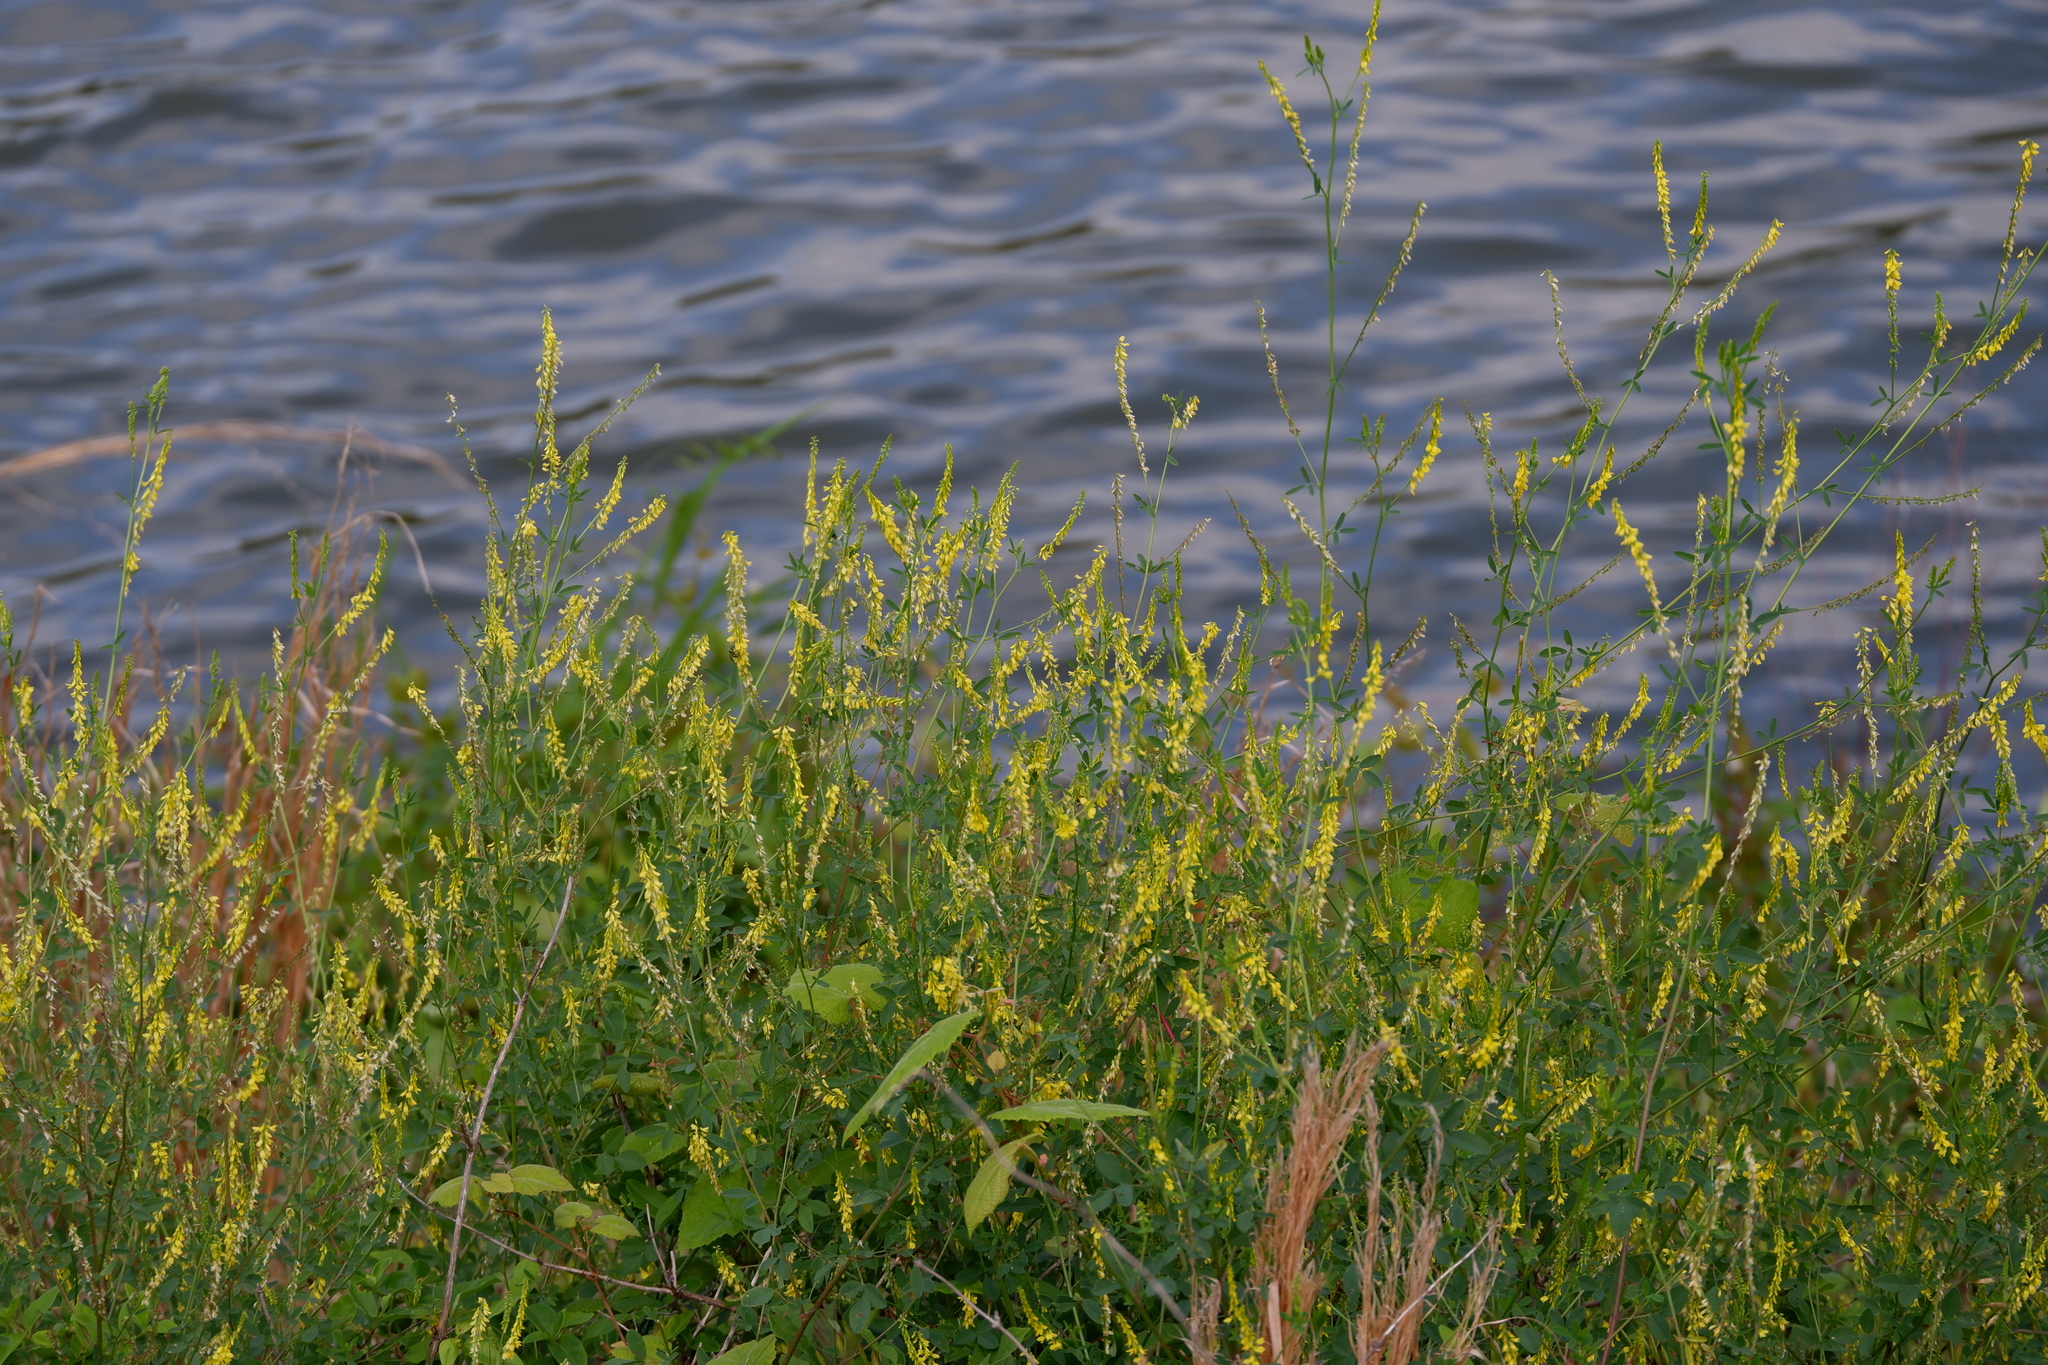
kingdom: Plantae
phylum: Tracheophyta
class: Magnoliopsida
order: Fabales
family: Fabaceae
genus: Melilotus
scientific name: Melilotus officinalis
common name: Sweetclover
